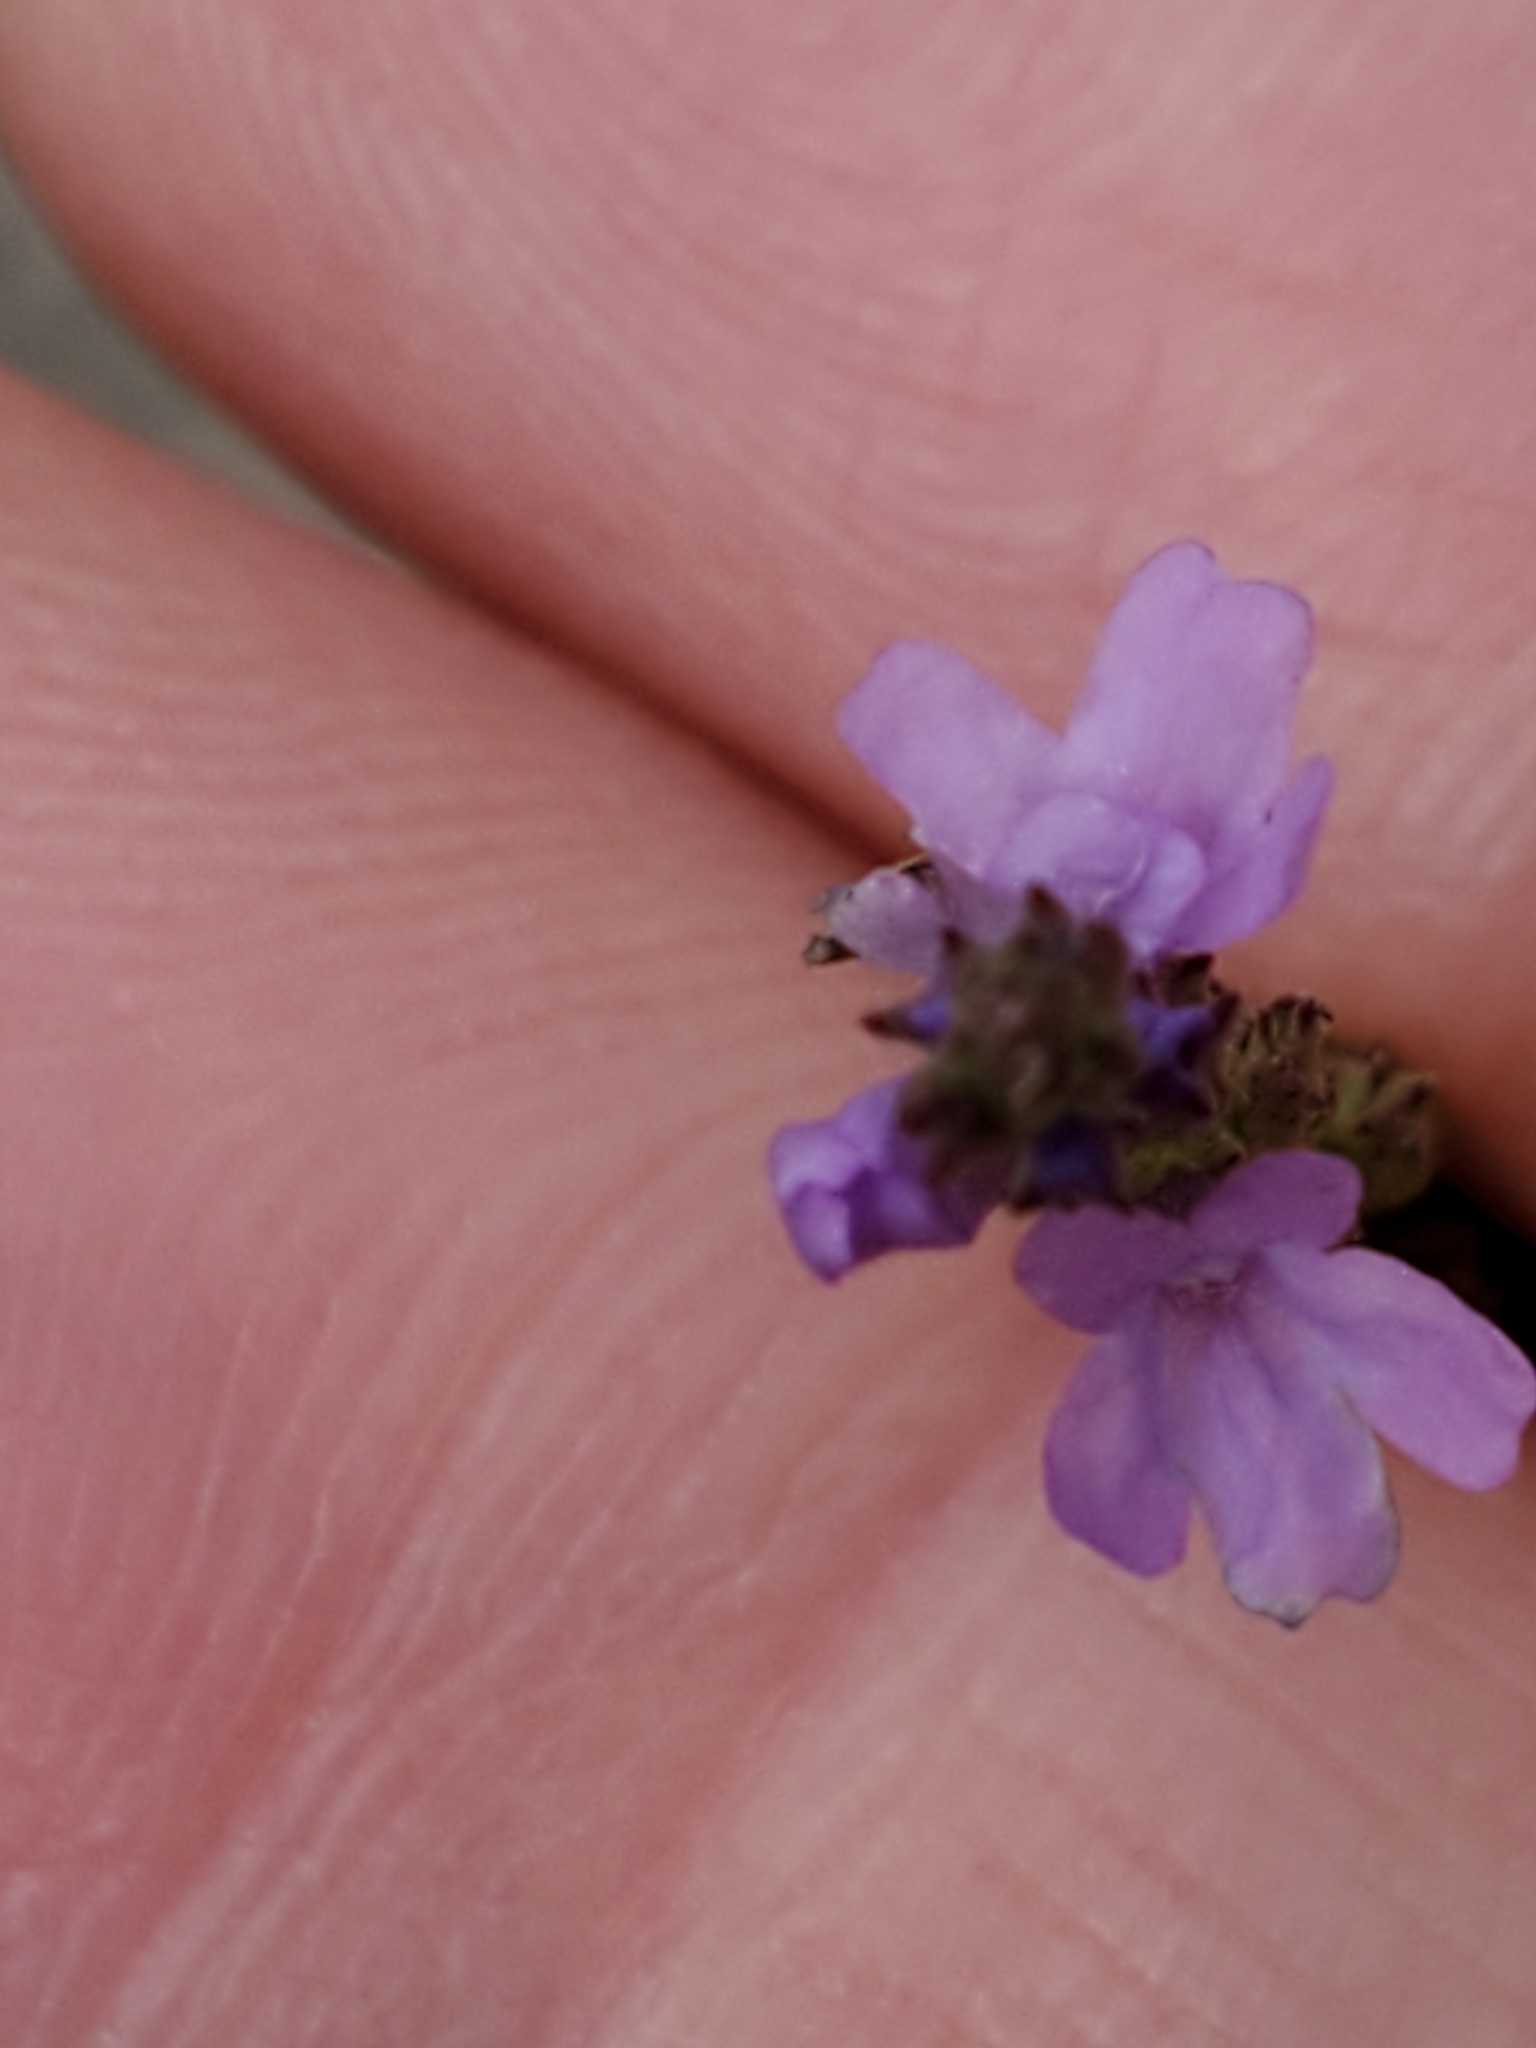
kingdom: Plantae
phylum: Tracheophyta
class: Magnoliopsida
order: Lamiales
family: Verbenaceae
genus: Verbena
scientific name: Verbena halei
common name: Texas vervain
